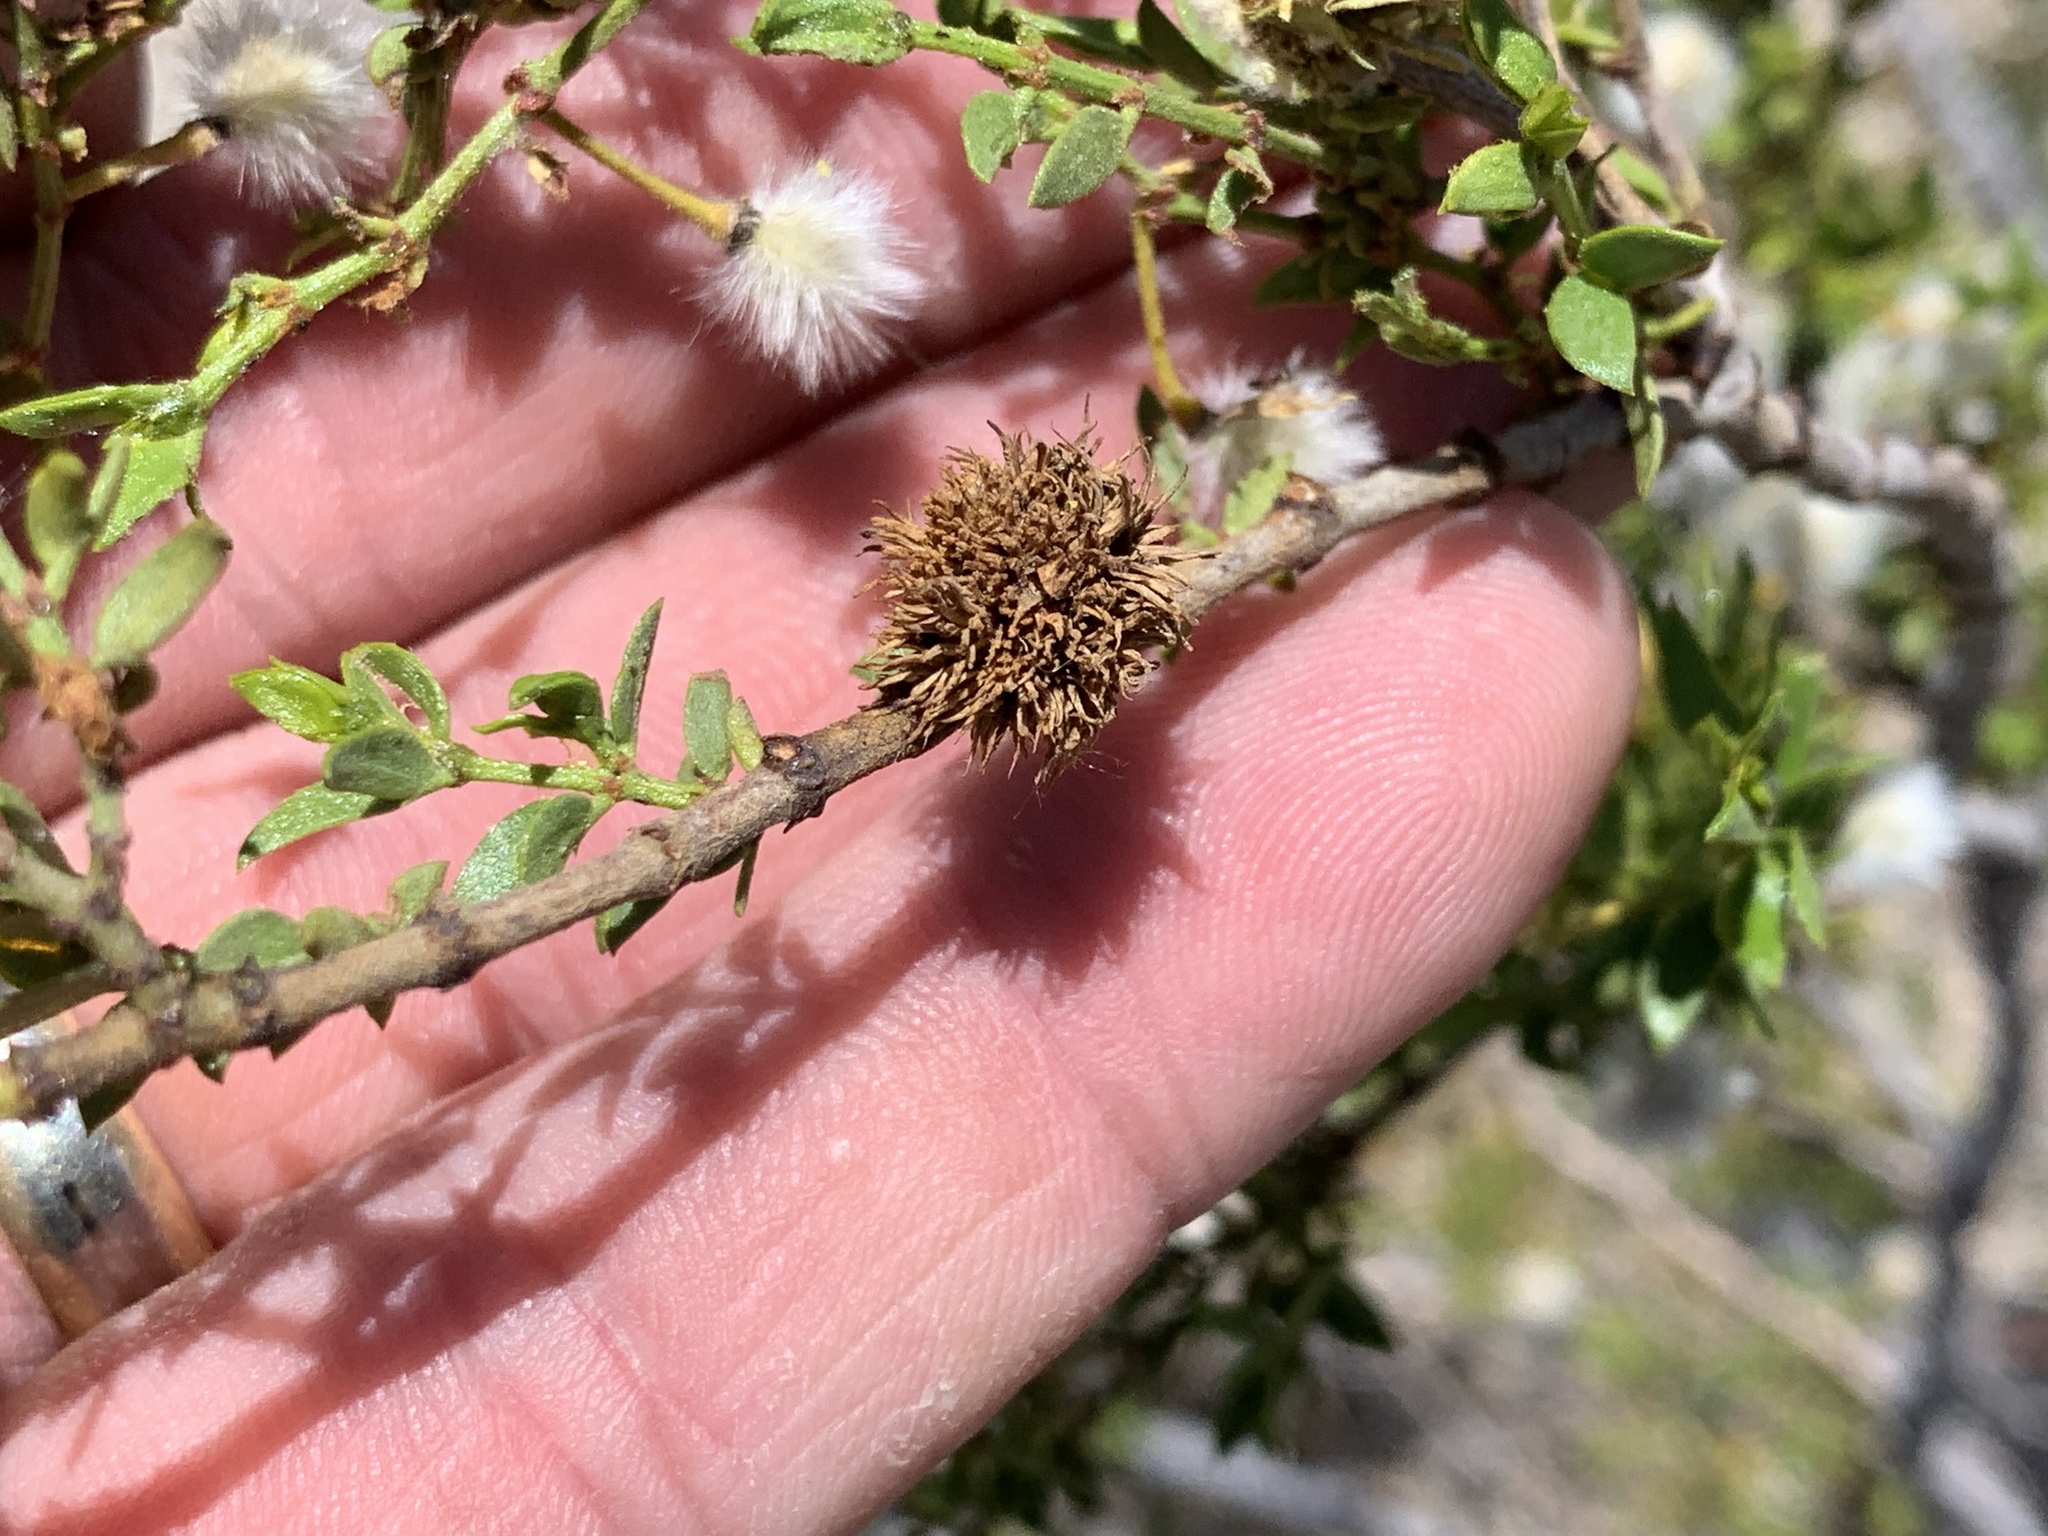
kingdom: Animalia
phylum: Arthropoda
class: Insecta
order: Diptera
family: Cecidomyiidae
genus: Asphondylia
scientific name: Asphondylia auripila
